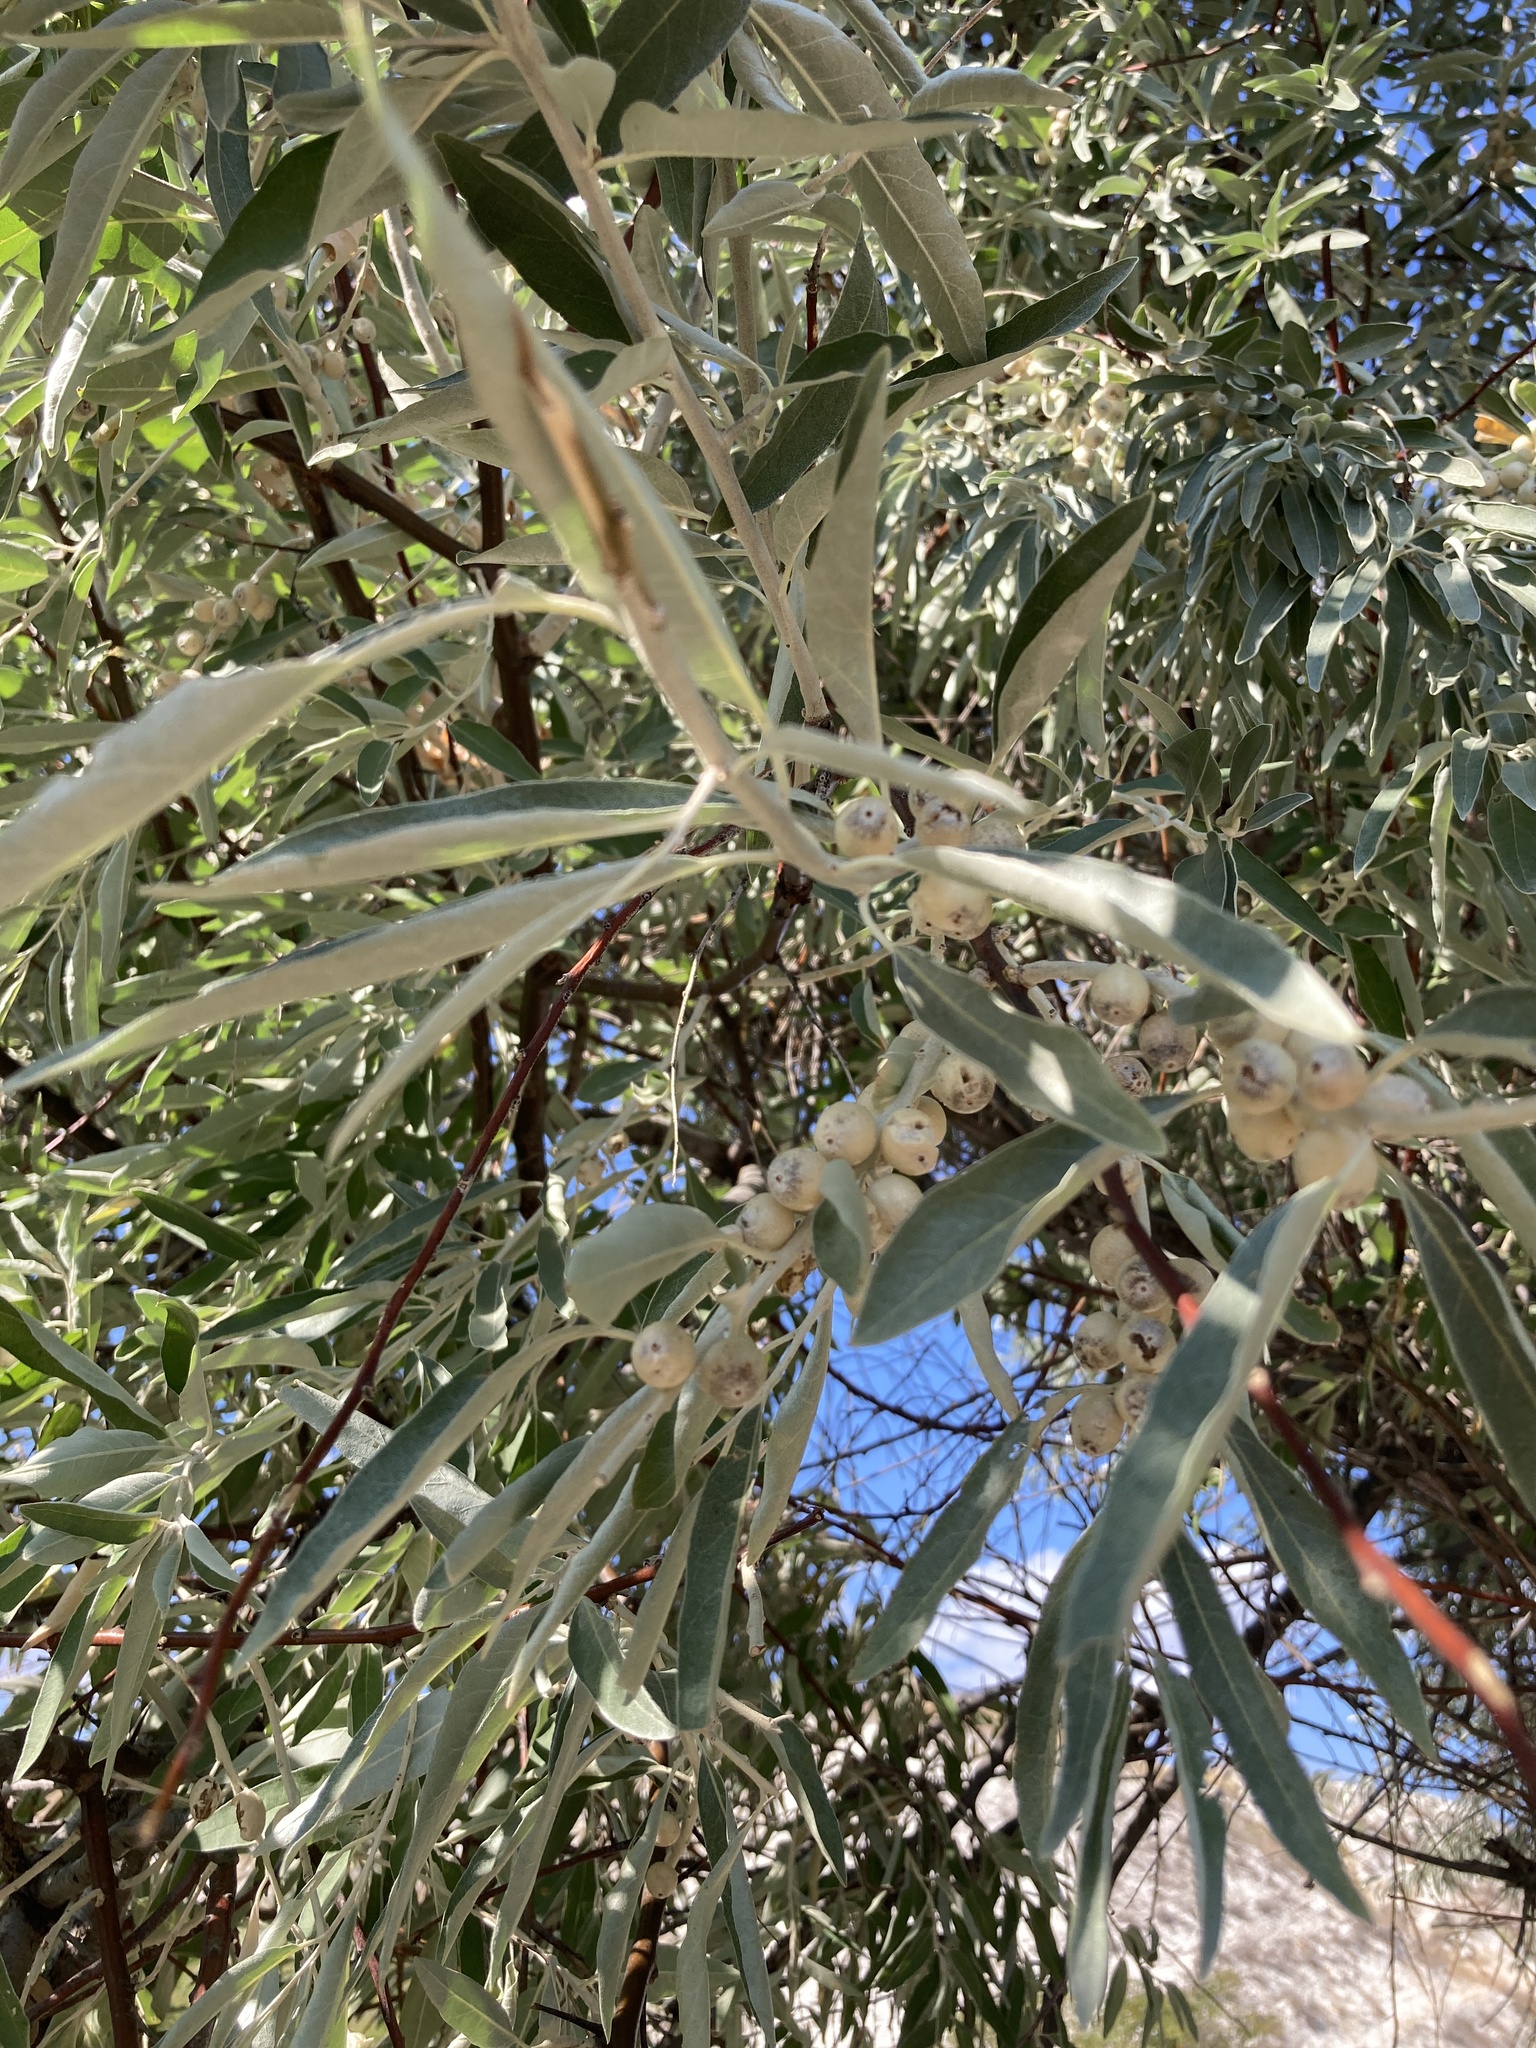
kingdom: Plantae
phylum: Tracheophyta
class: Magnoliopsida
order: Rosales
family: Elaeagnaceae
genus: Elaeagnus
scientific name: Elaeagnus angustifolia
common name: Russian olive
